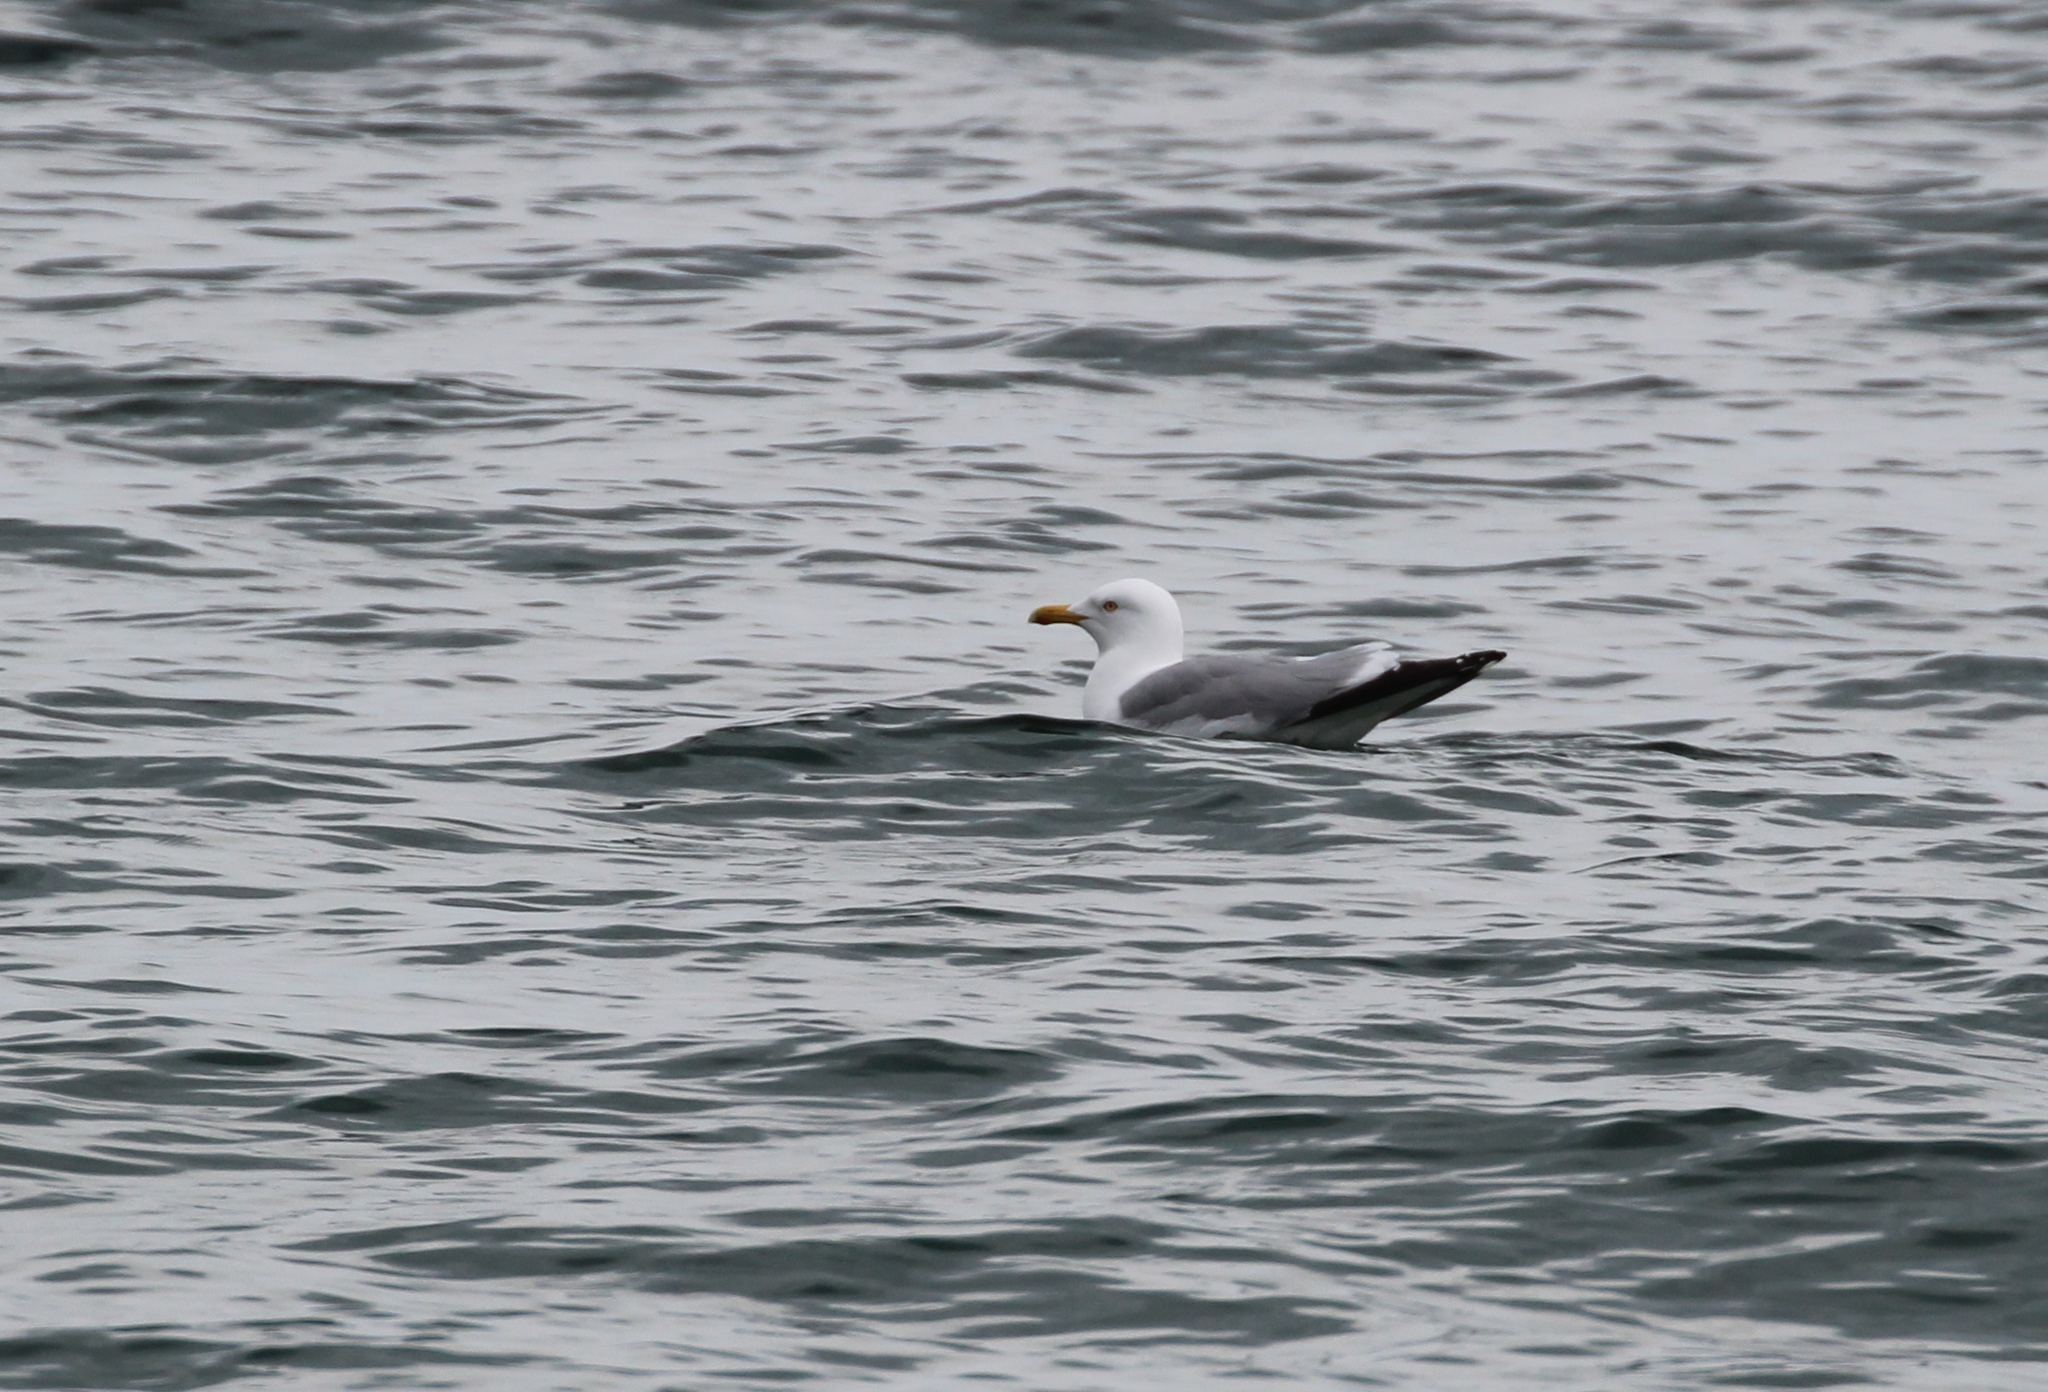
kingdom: Animalia
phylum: Chordata
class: Aves
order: Charadriiformes
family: Laridae
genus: Larus
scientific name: Larus argentatus
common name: Herring gull
